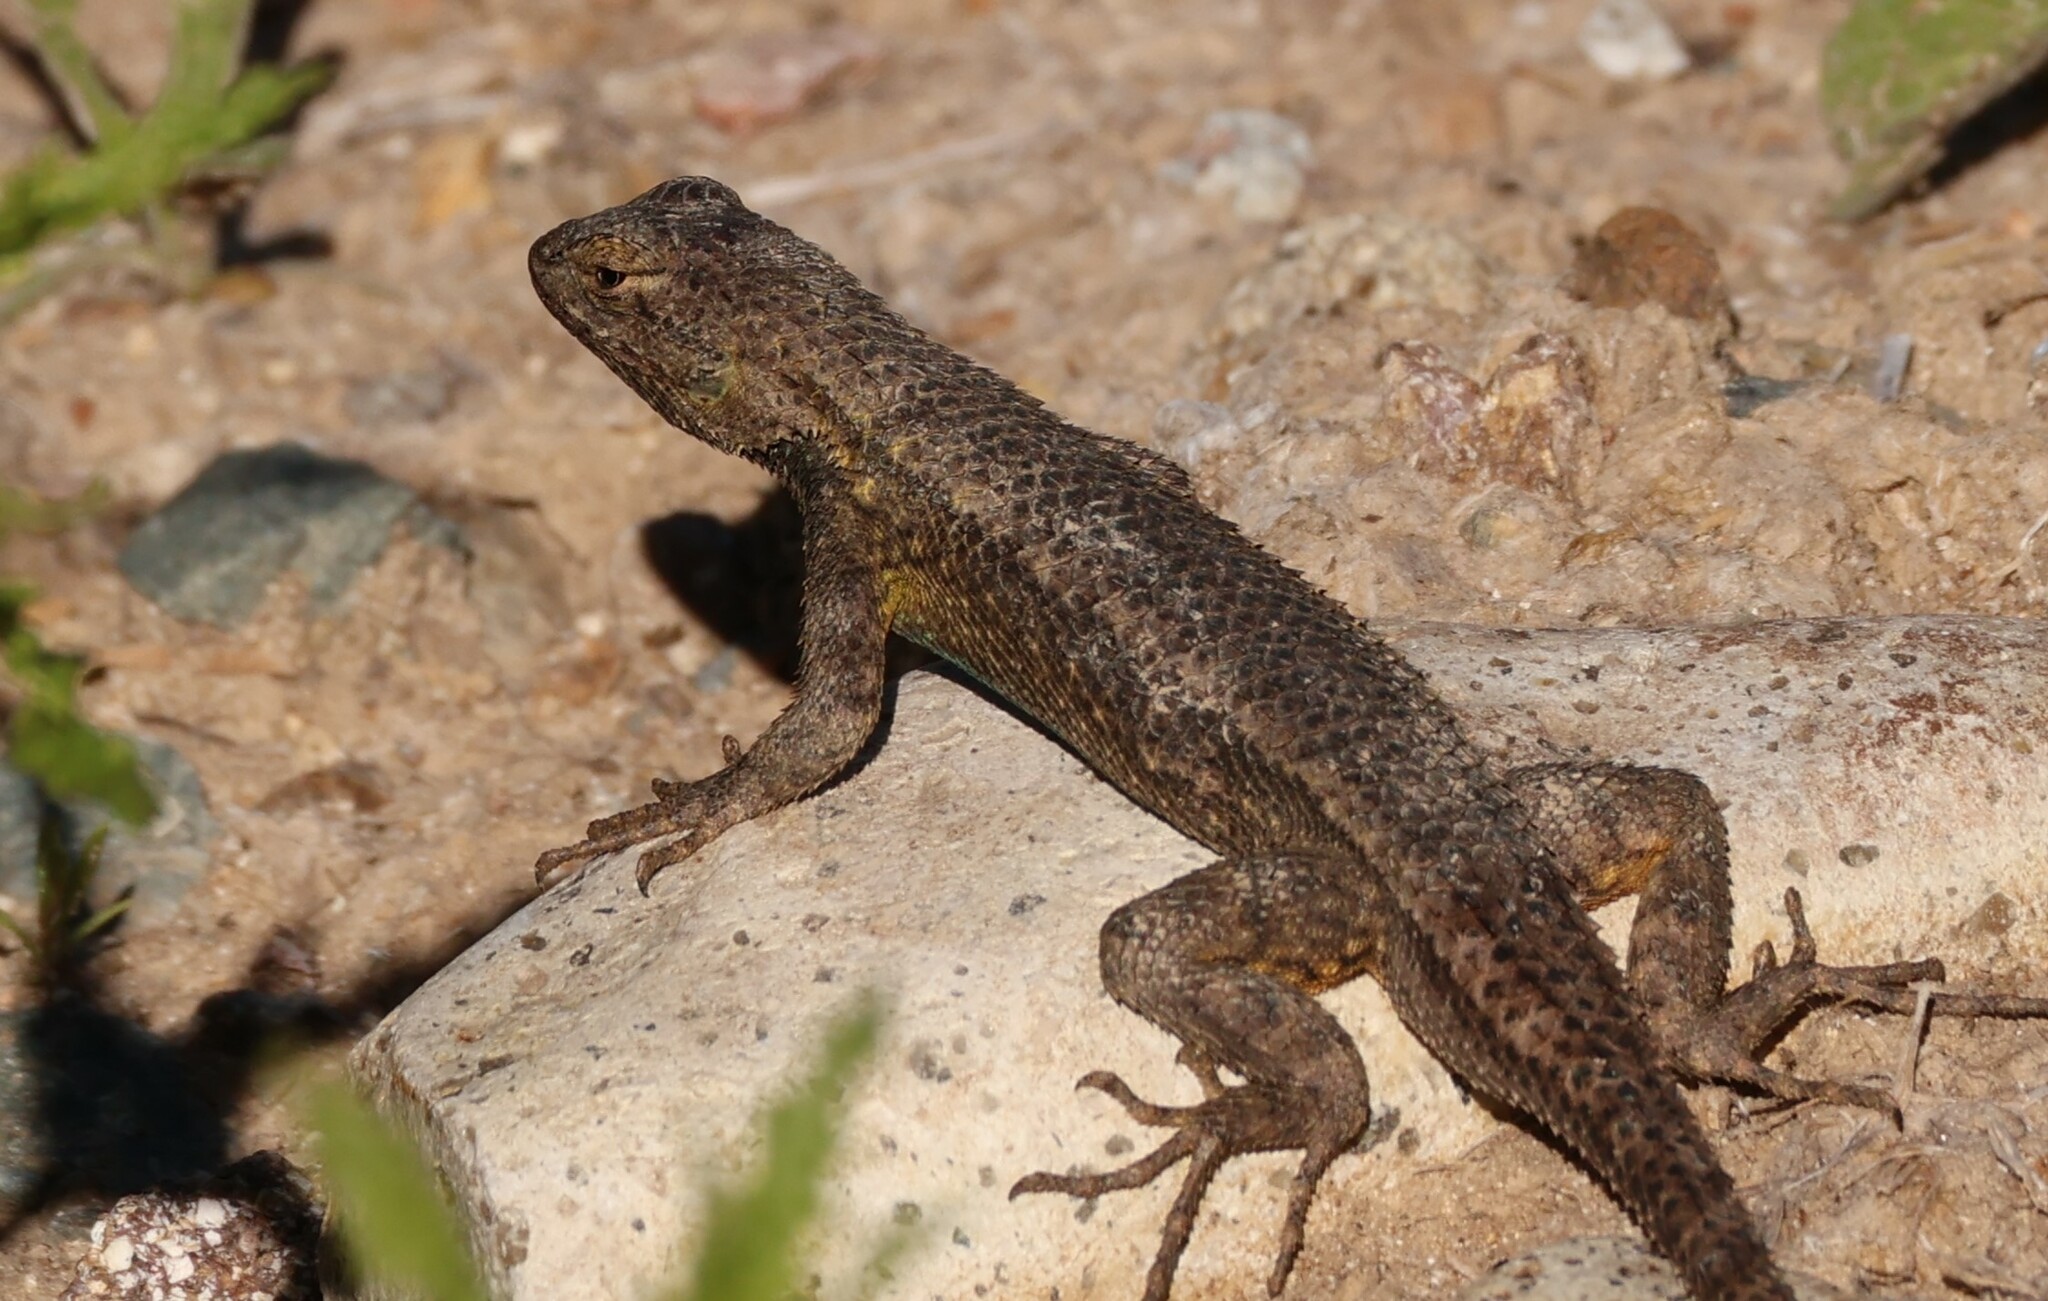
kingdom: Animalia
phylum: Chordata
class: Squamata
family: Phrynosomatidae
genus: Sceloporus
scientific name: Sceloporus occidentalis
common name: Western fence lizard
